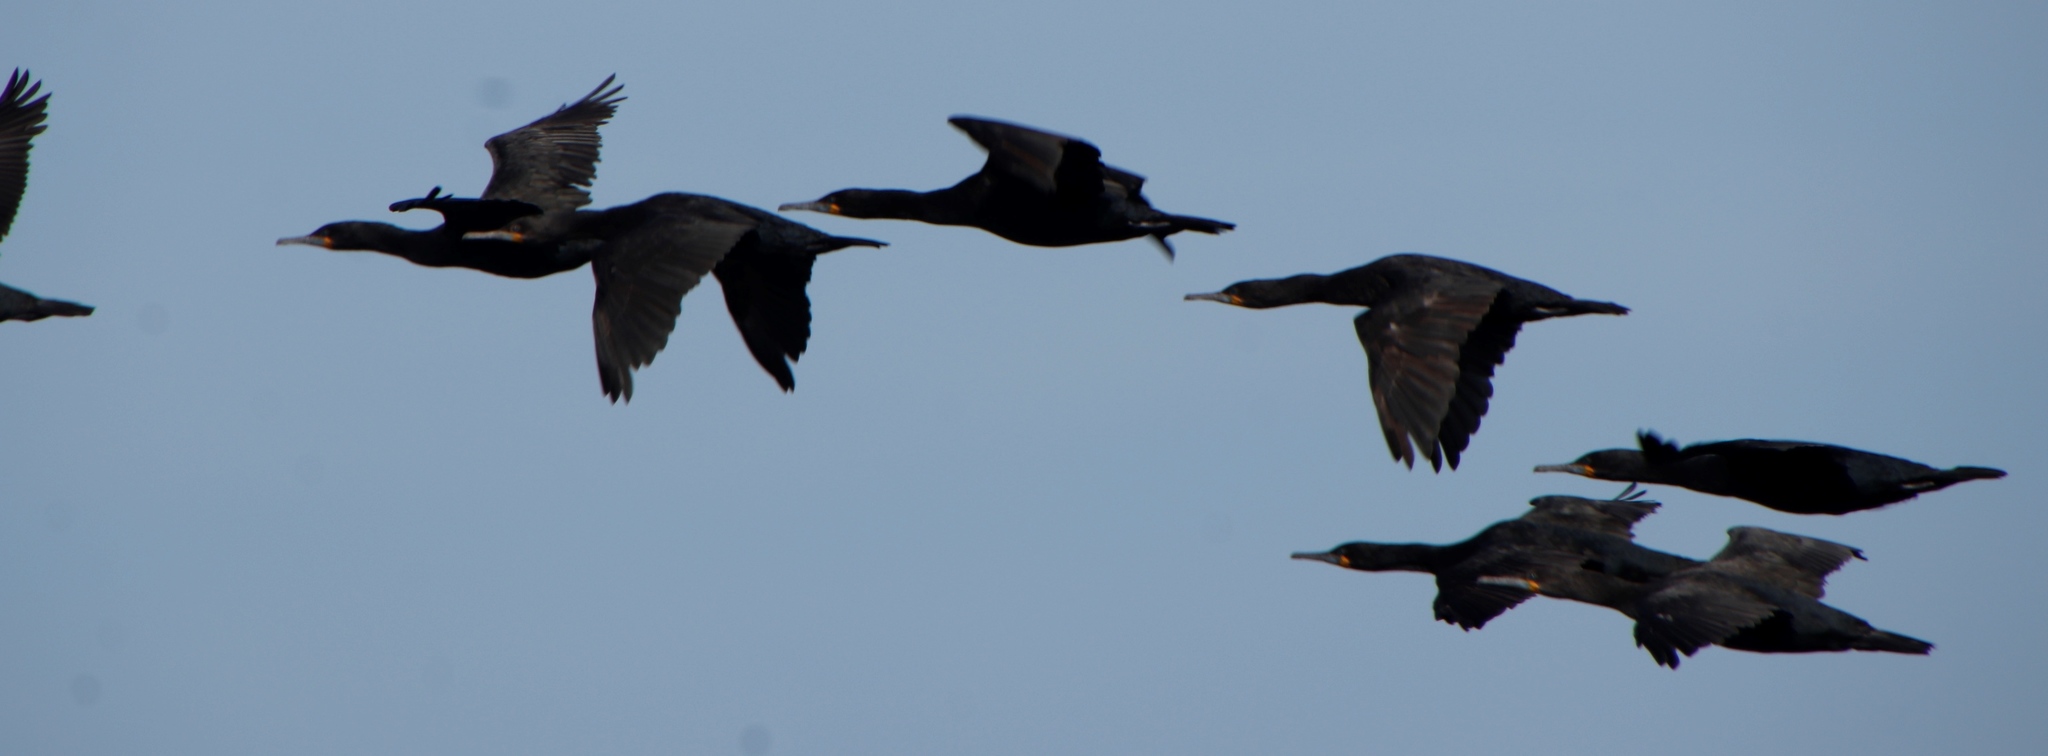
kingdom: Animalia
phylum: Chordata
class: Aves
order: Suliformes
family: Phalacrocoracidae
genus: Phalacrocorax
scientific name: Phalacrocorax capensis
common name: Cape cormorant
